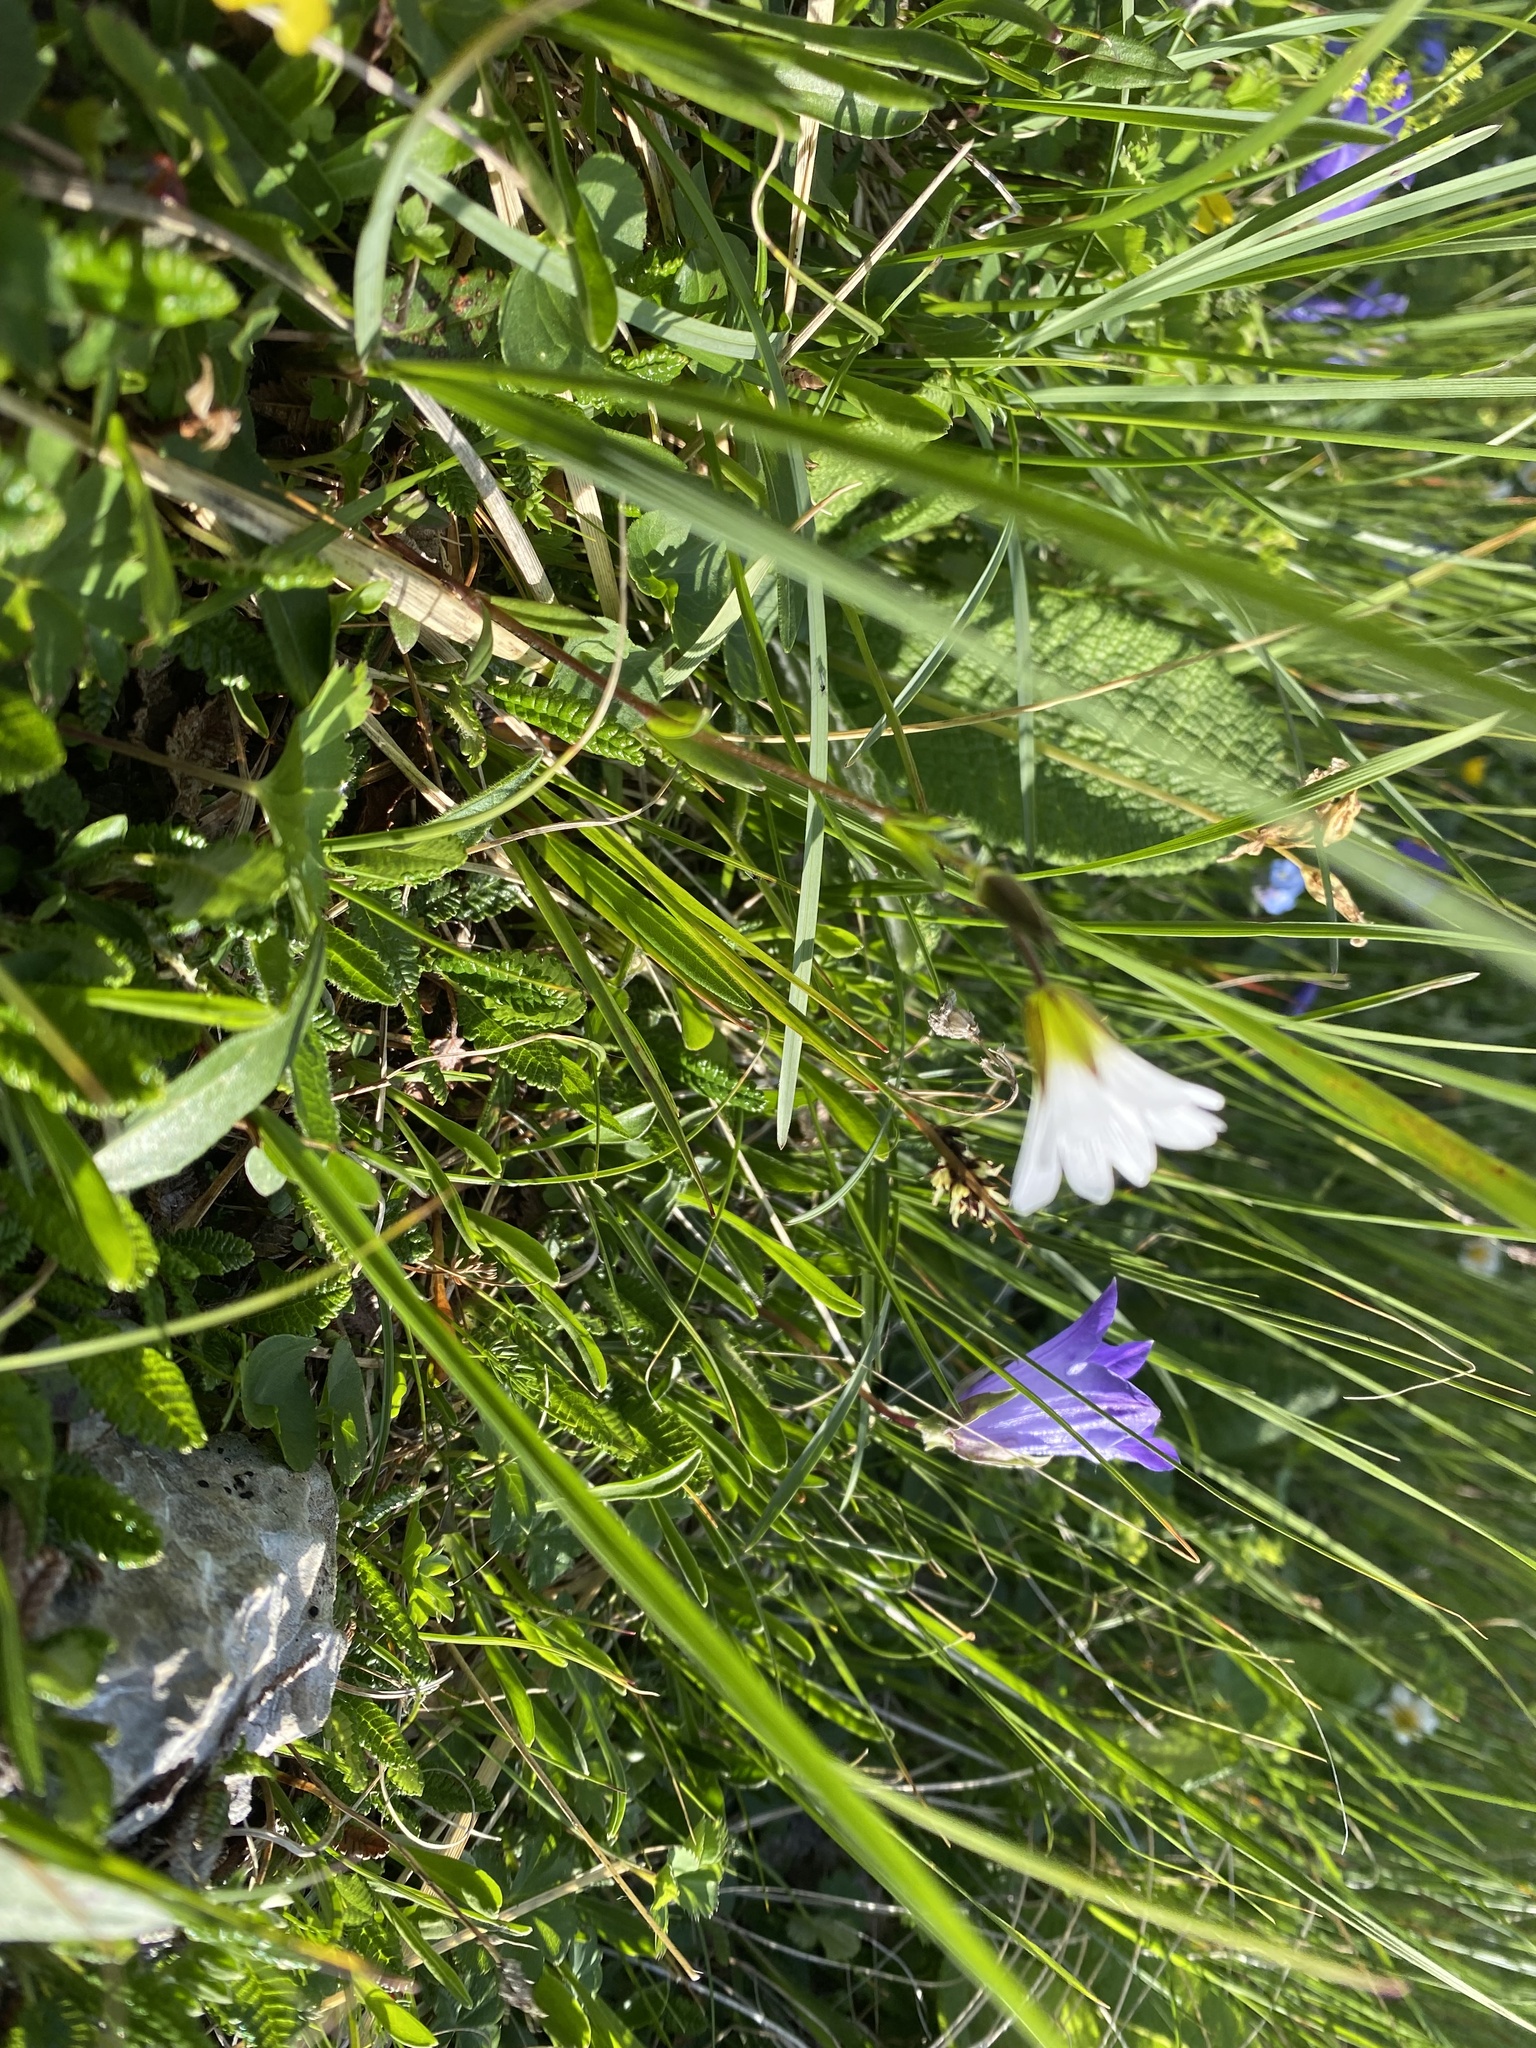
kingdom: Plantae
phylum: Tracheophyta
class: Magnoliopsida
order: Caryophyllales
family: Caryophyllaceae
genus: Dichodon
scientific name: Dichodon cerastoides
